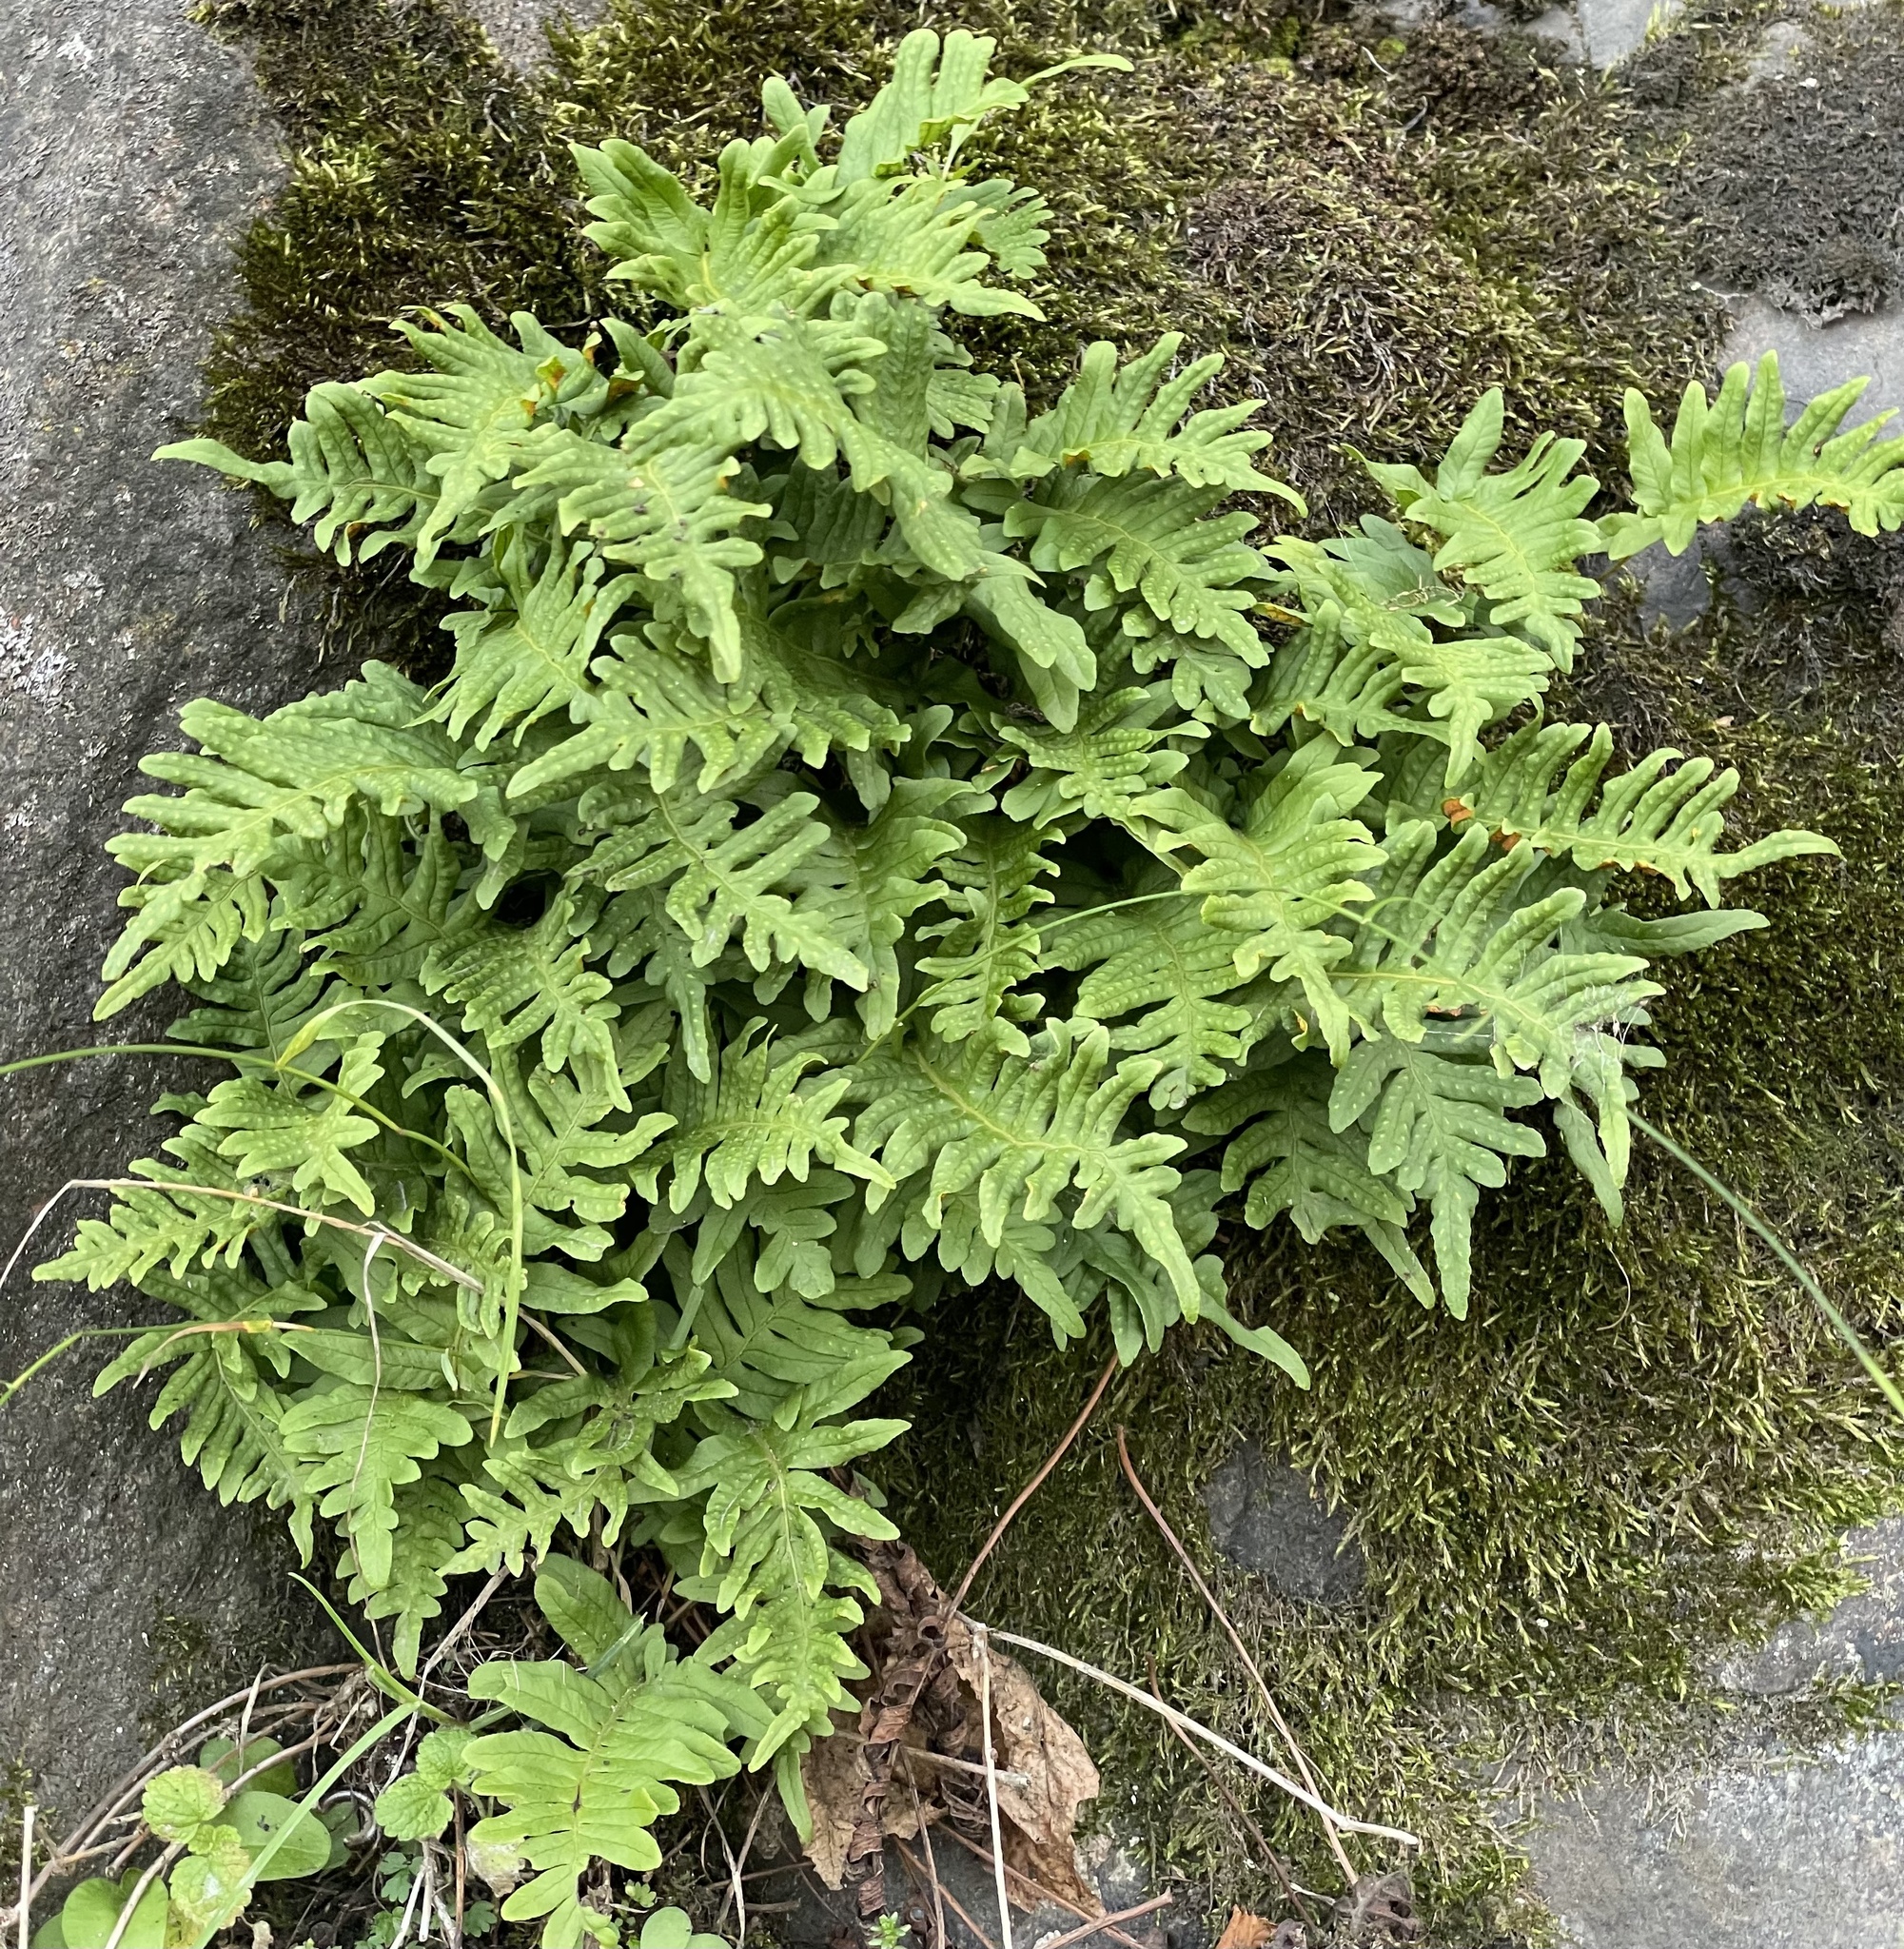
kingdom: Plantae
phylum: Tracheophyta
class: Polypodiopsida
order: Polypodiales
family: Polypodiaceae
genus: Polypodium
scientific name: Polypodium vulgare
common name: Common polypody
